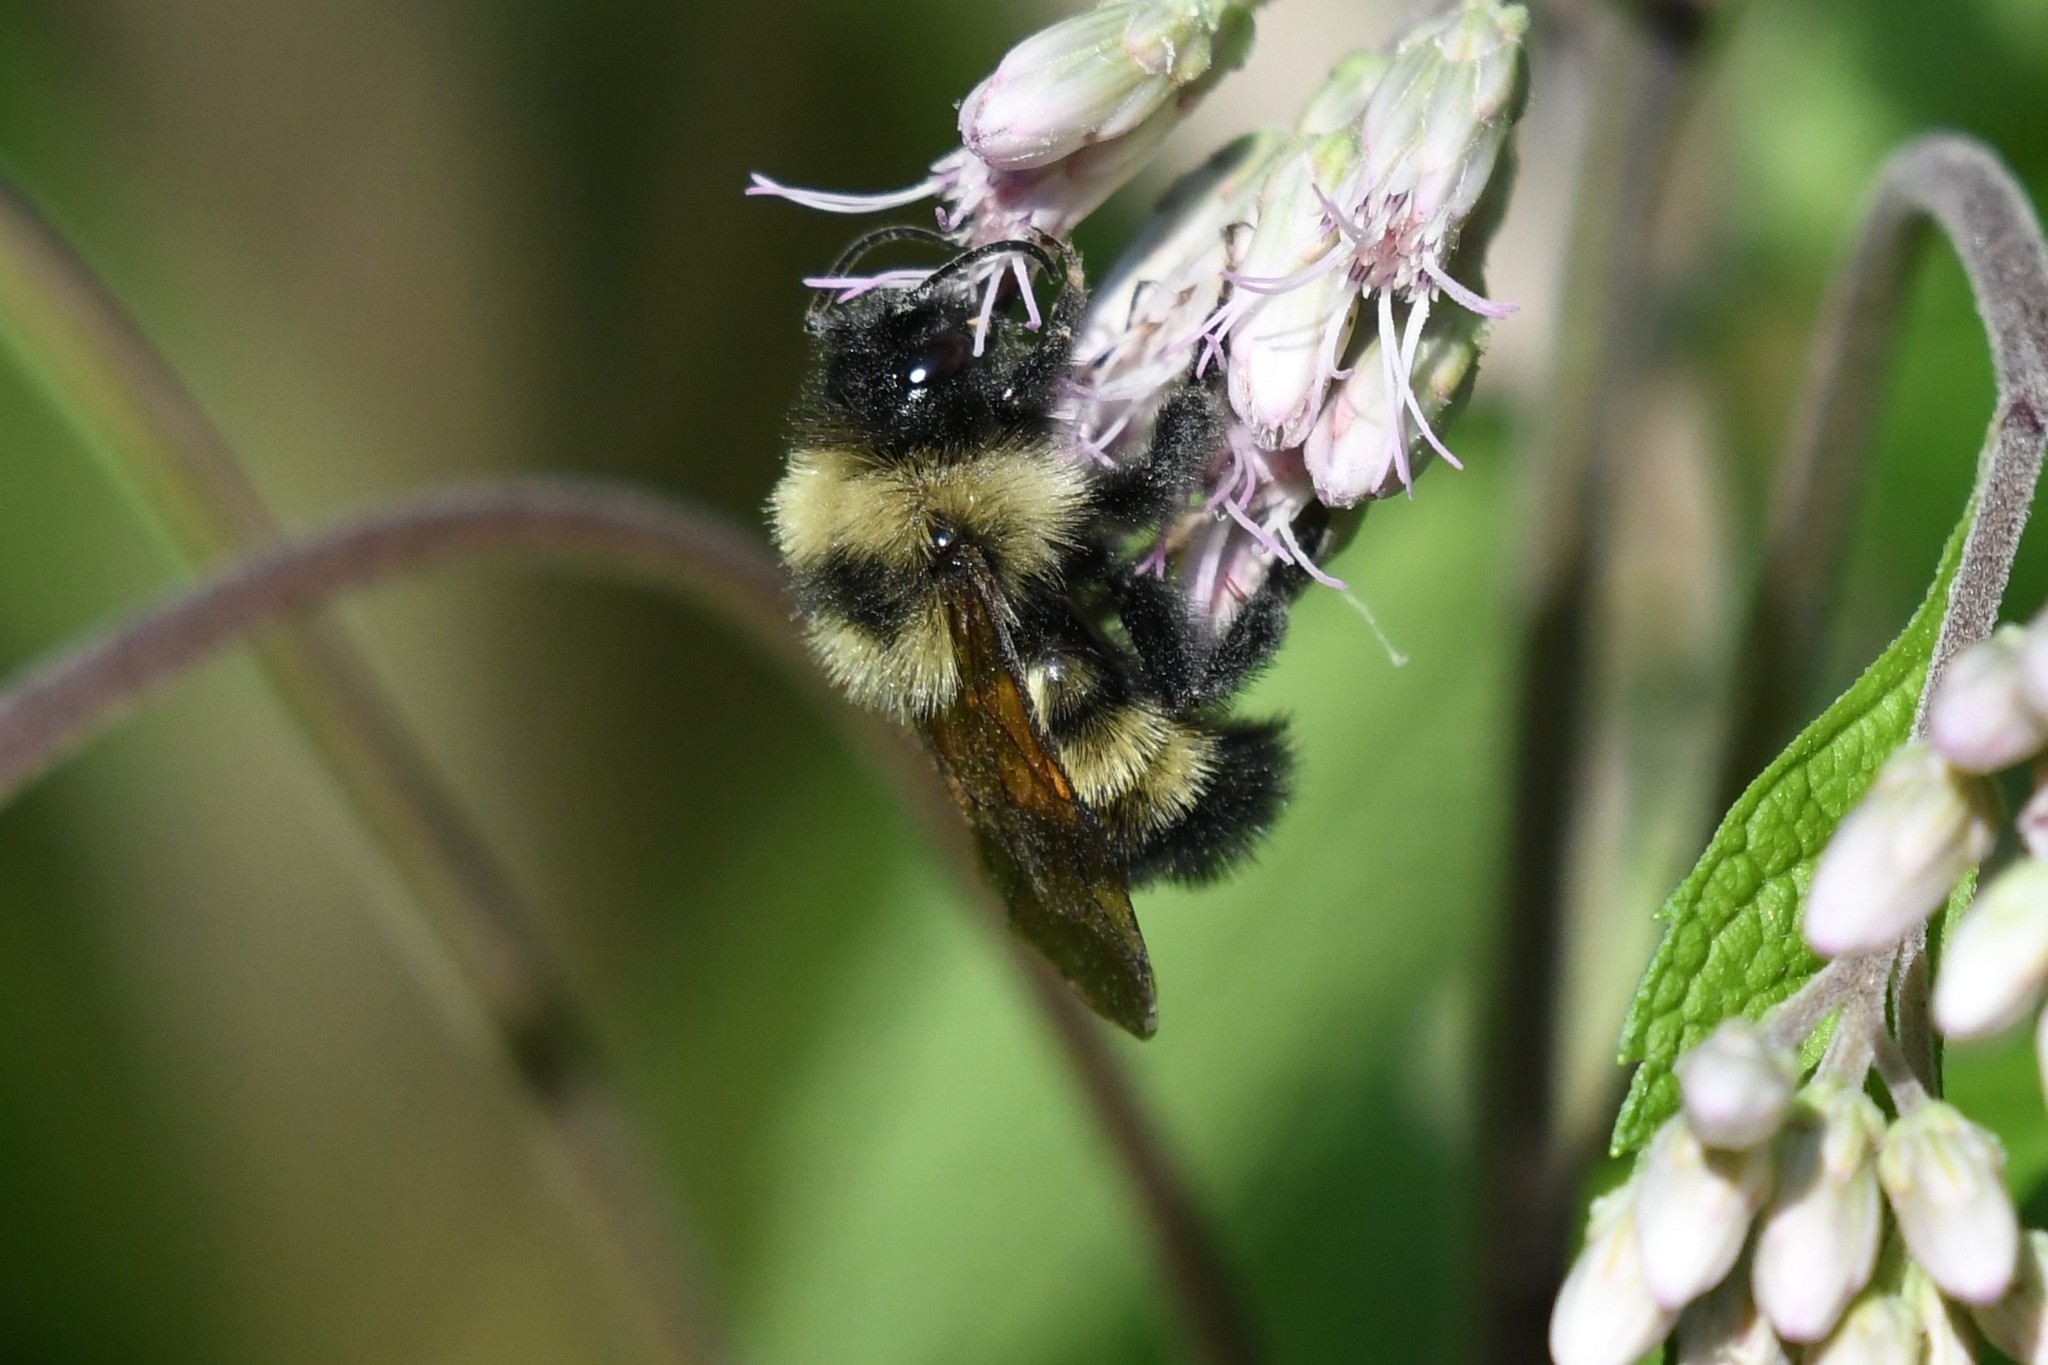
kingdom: Animalia
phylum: Arthropoda
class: Insecta
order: Hymenoptera
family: Apidae
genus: Bombus
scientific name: Bombus citrinus
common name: Lemon cuckoo bumble bee
